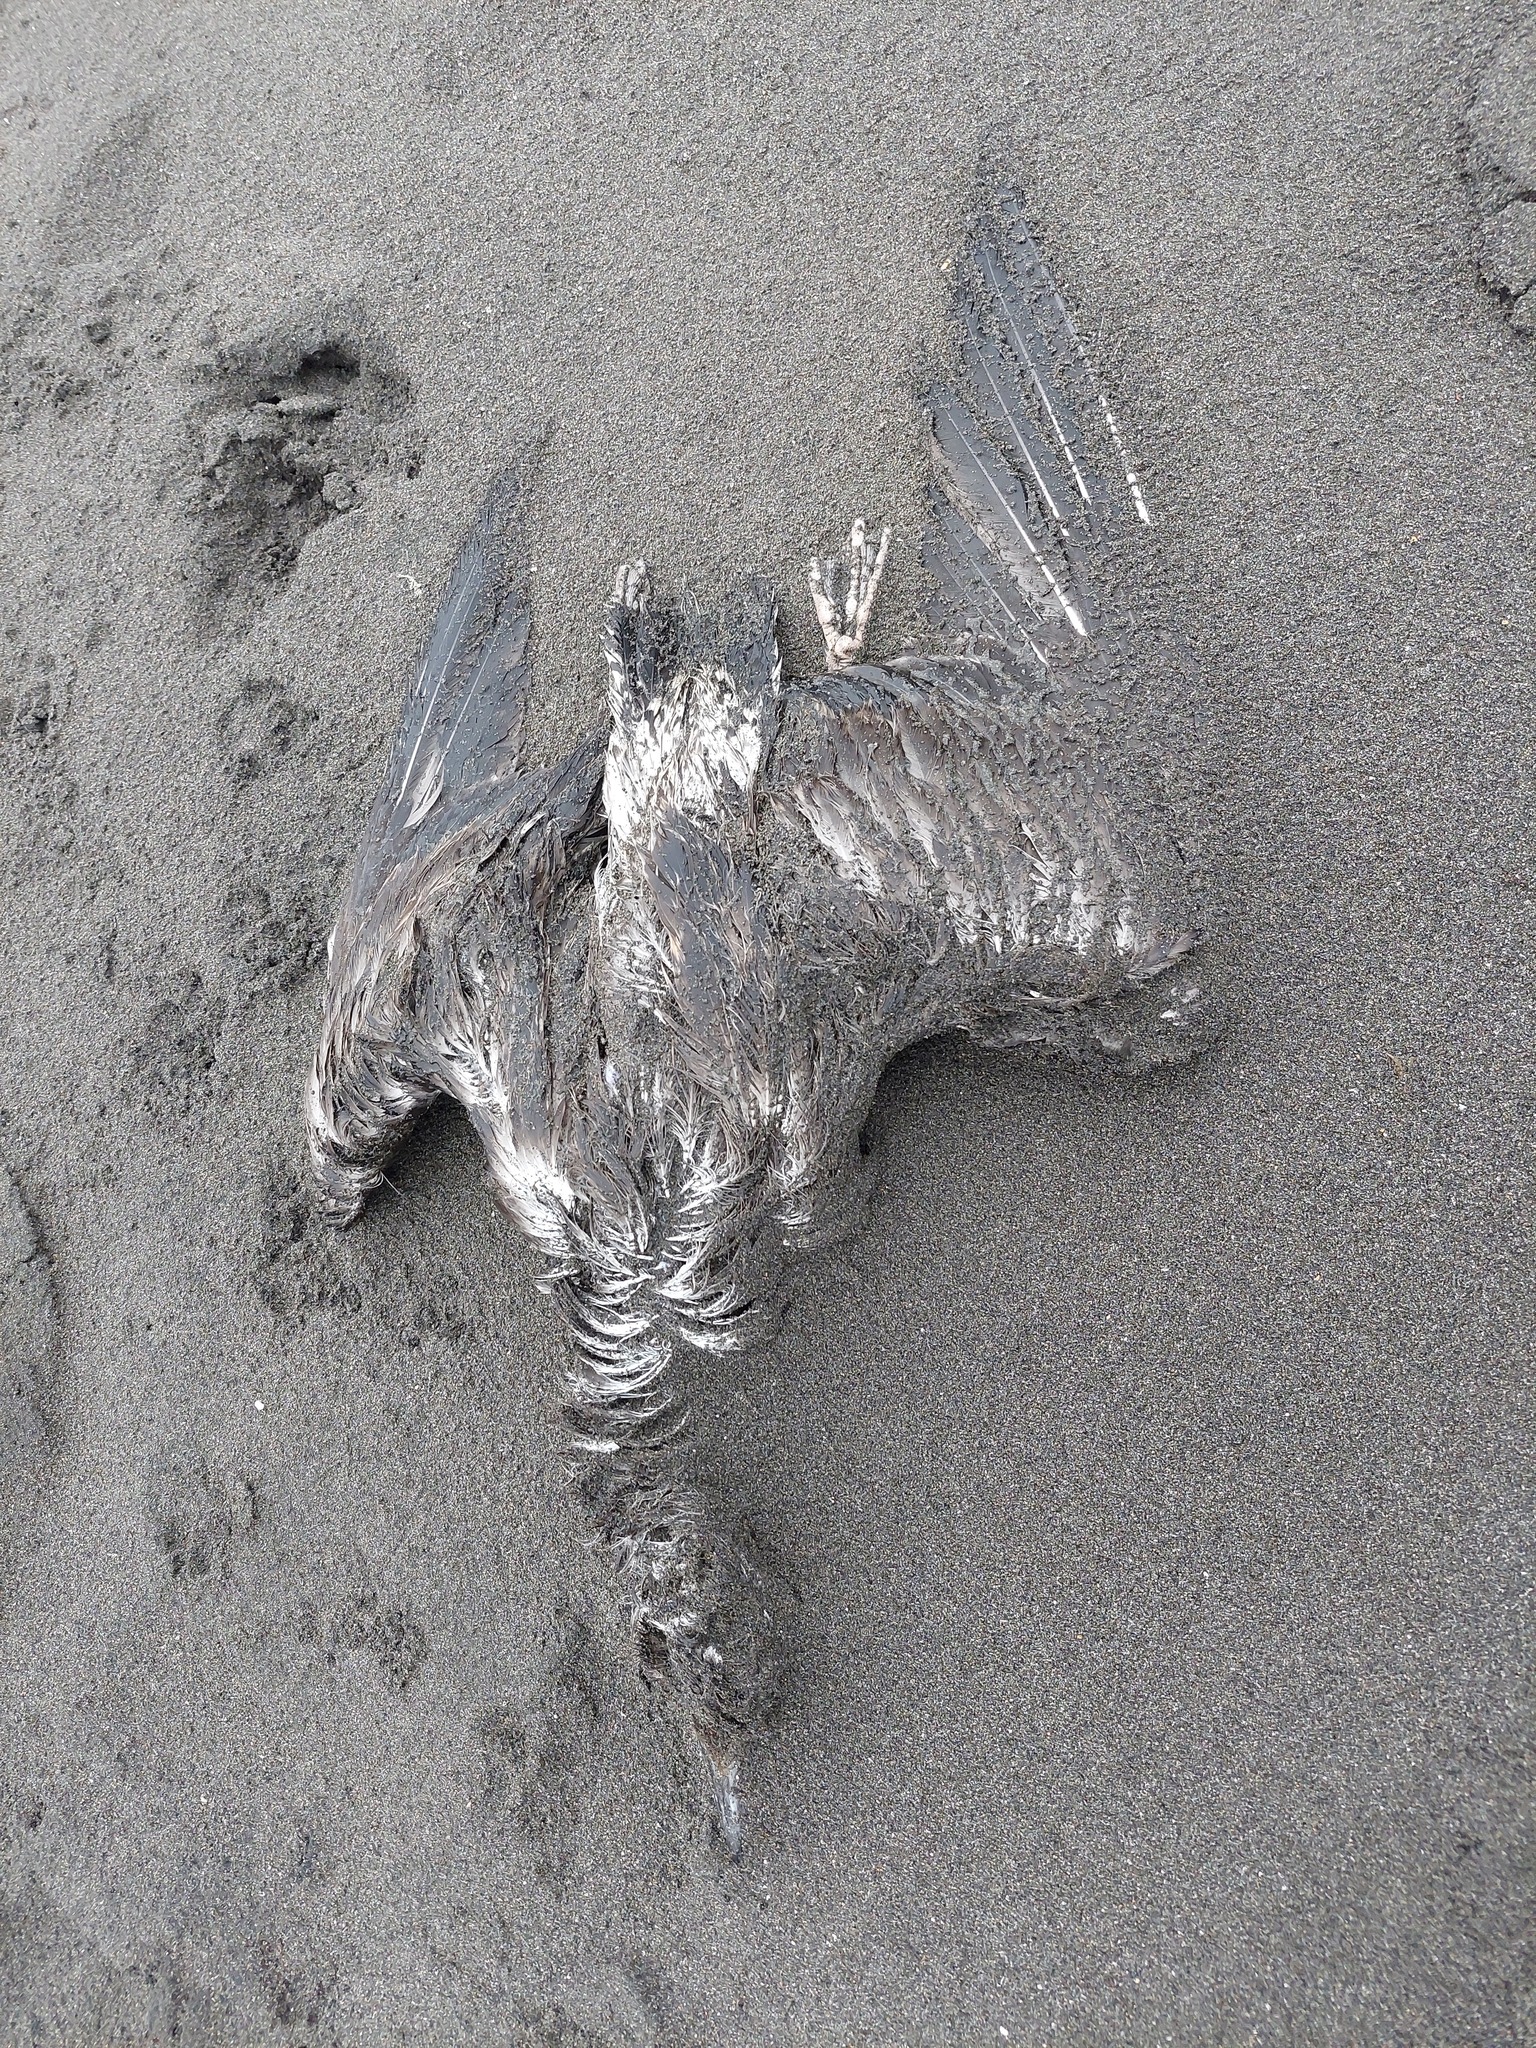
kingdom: Animalia
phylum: Chordata
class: Aves
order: Charadriiformes
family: Laridae
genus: Larus
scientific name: Larus dominicanus
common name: Kelp gull
